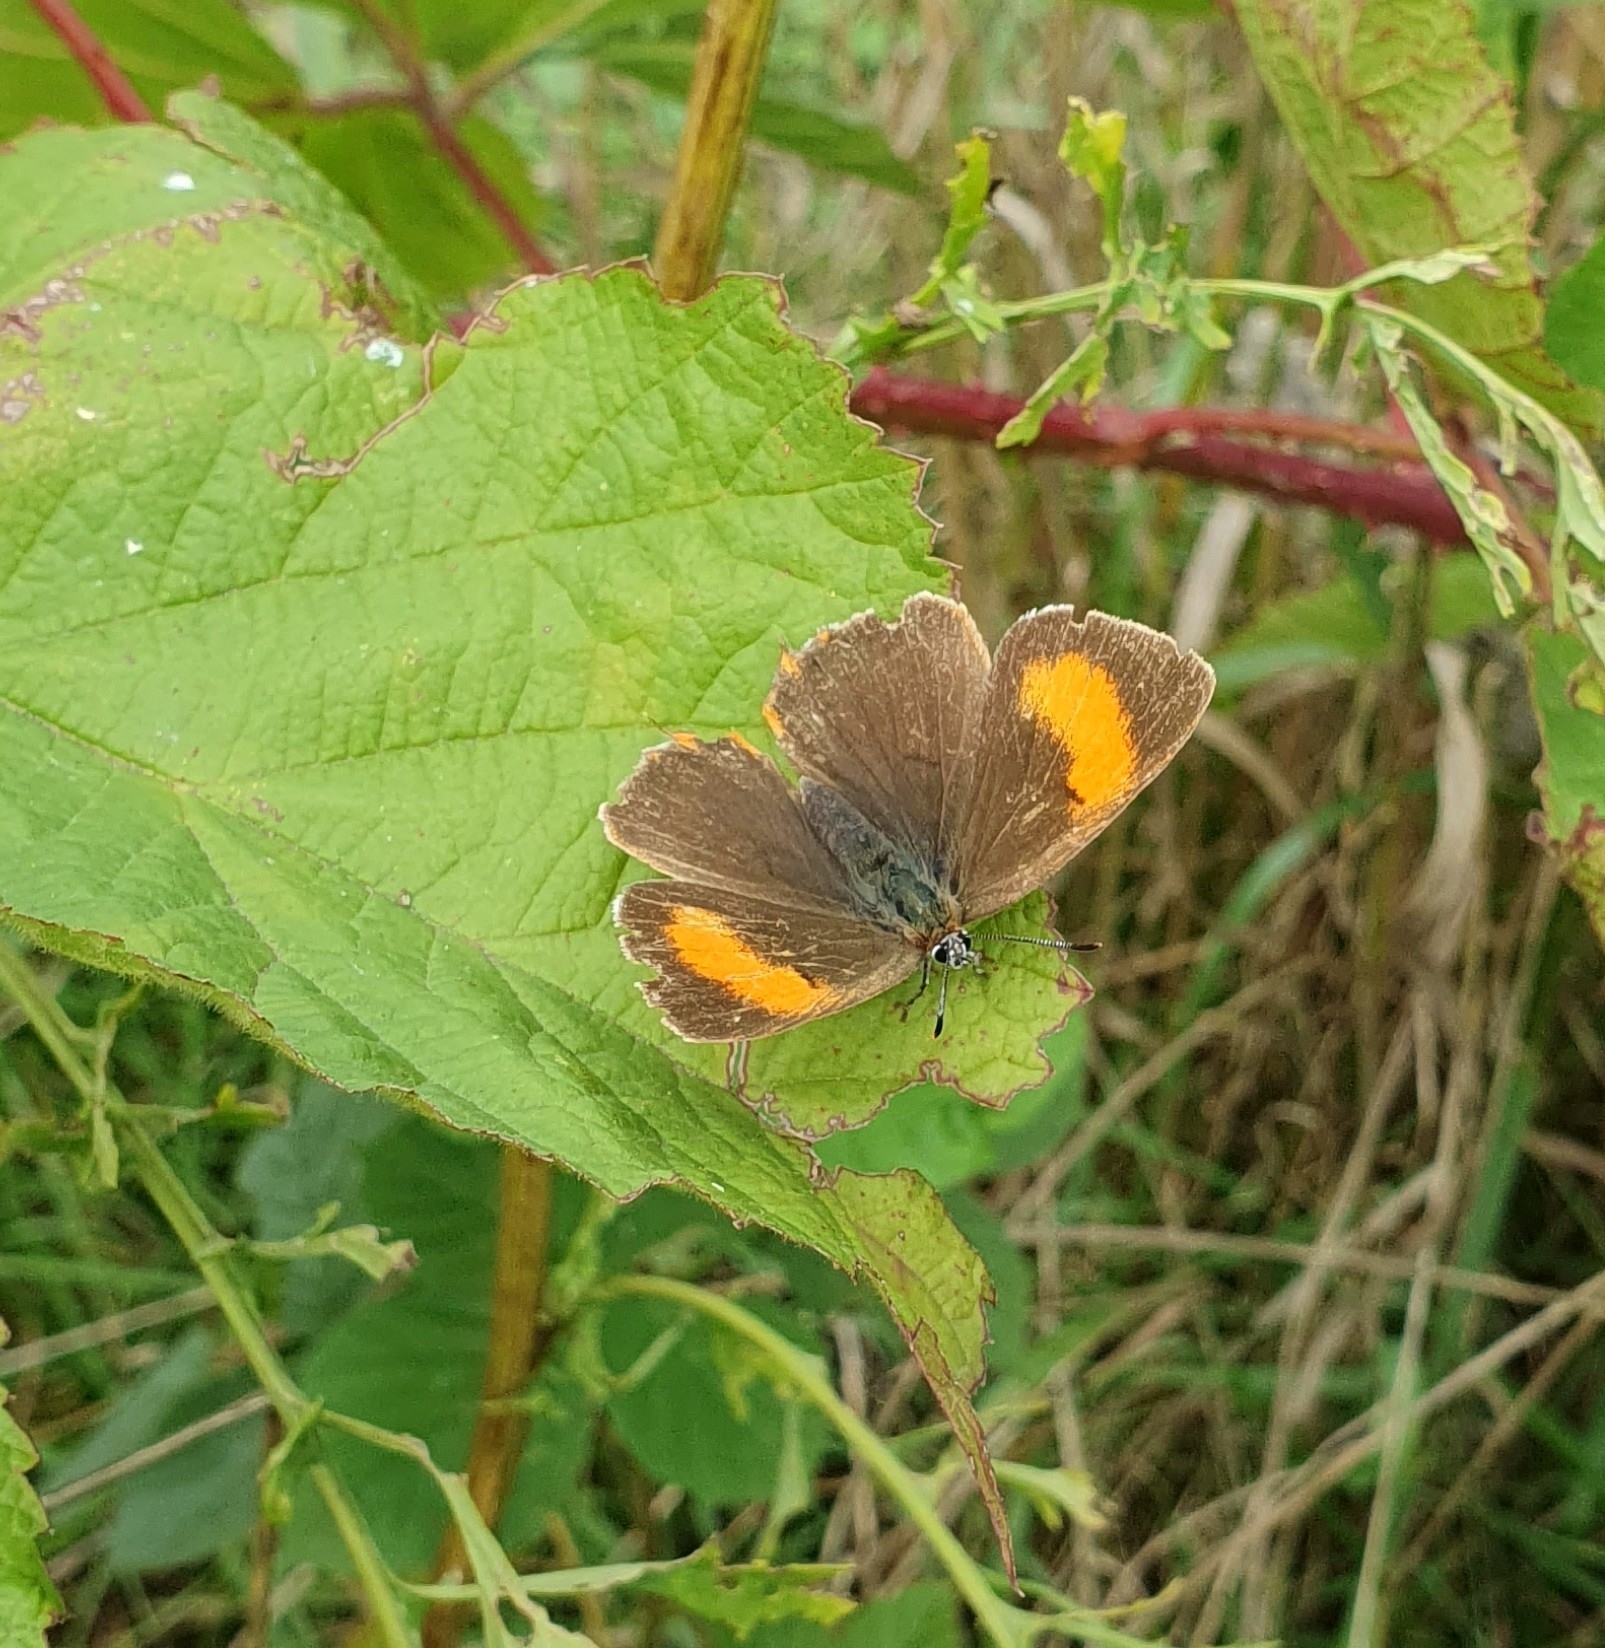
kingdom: Animalia
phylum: Arthropoda
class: Insecta
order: Lepidoptera
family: Lycaenidae
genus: Thecla
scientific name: Thecla betulae
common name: Brown hairstreak
